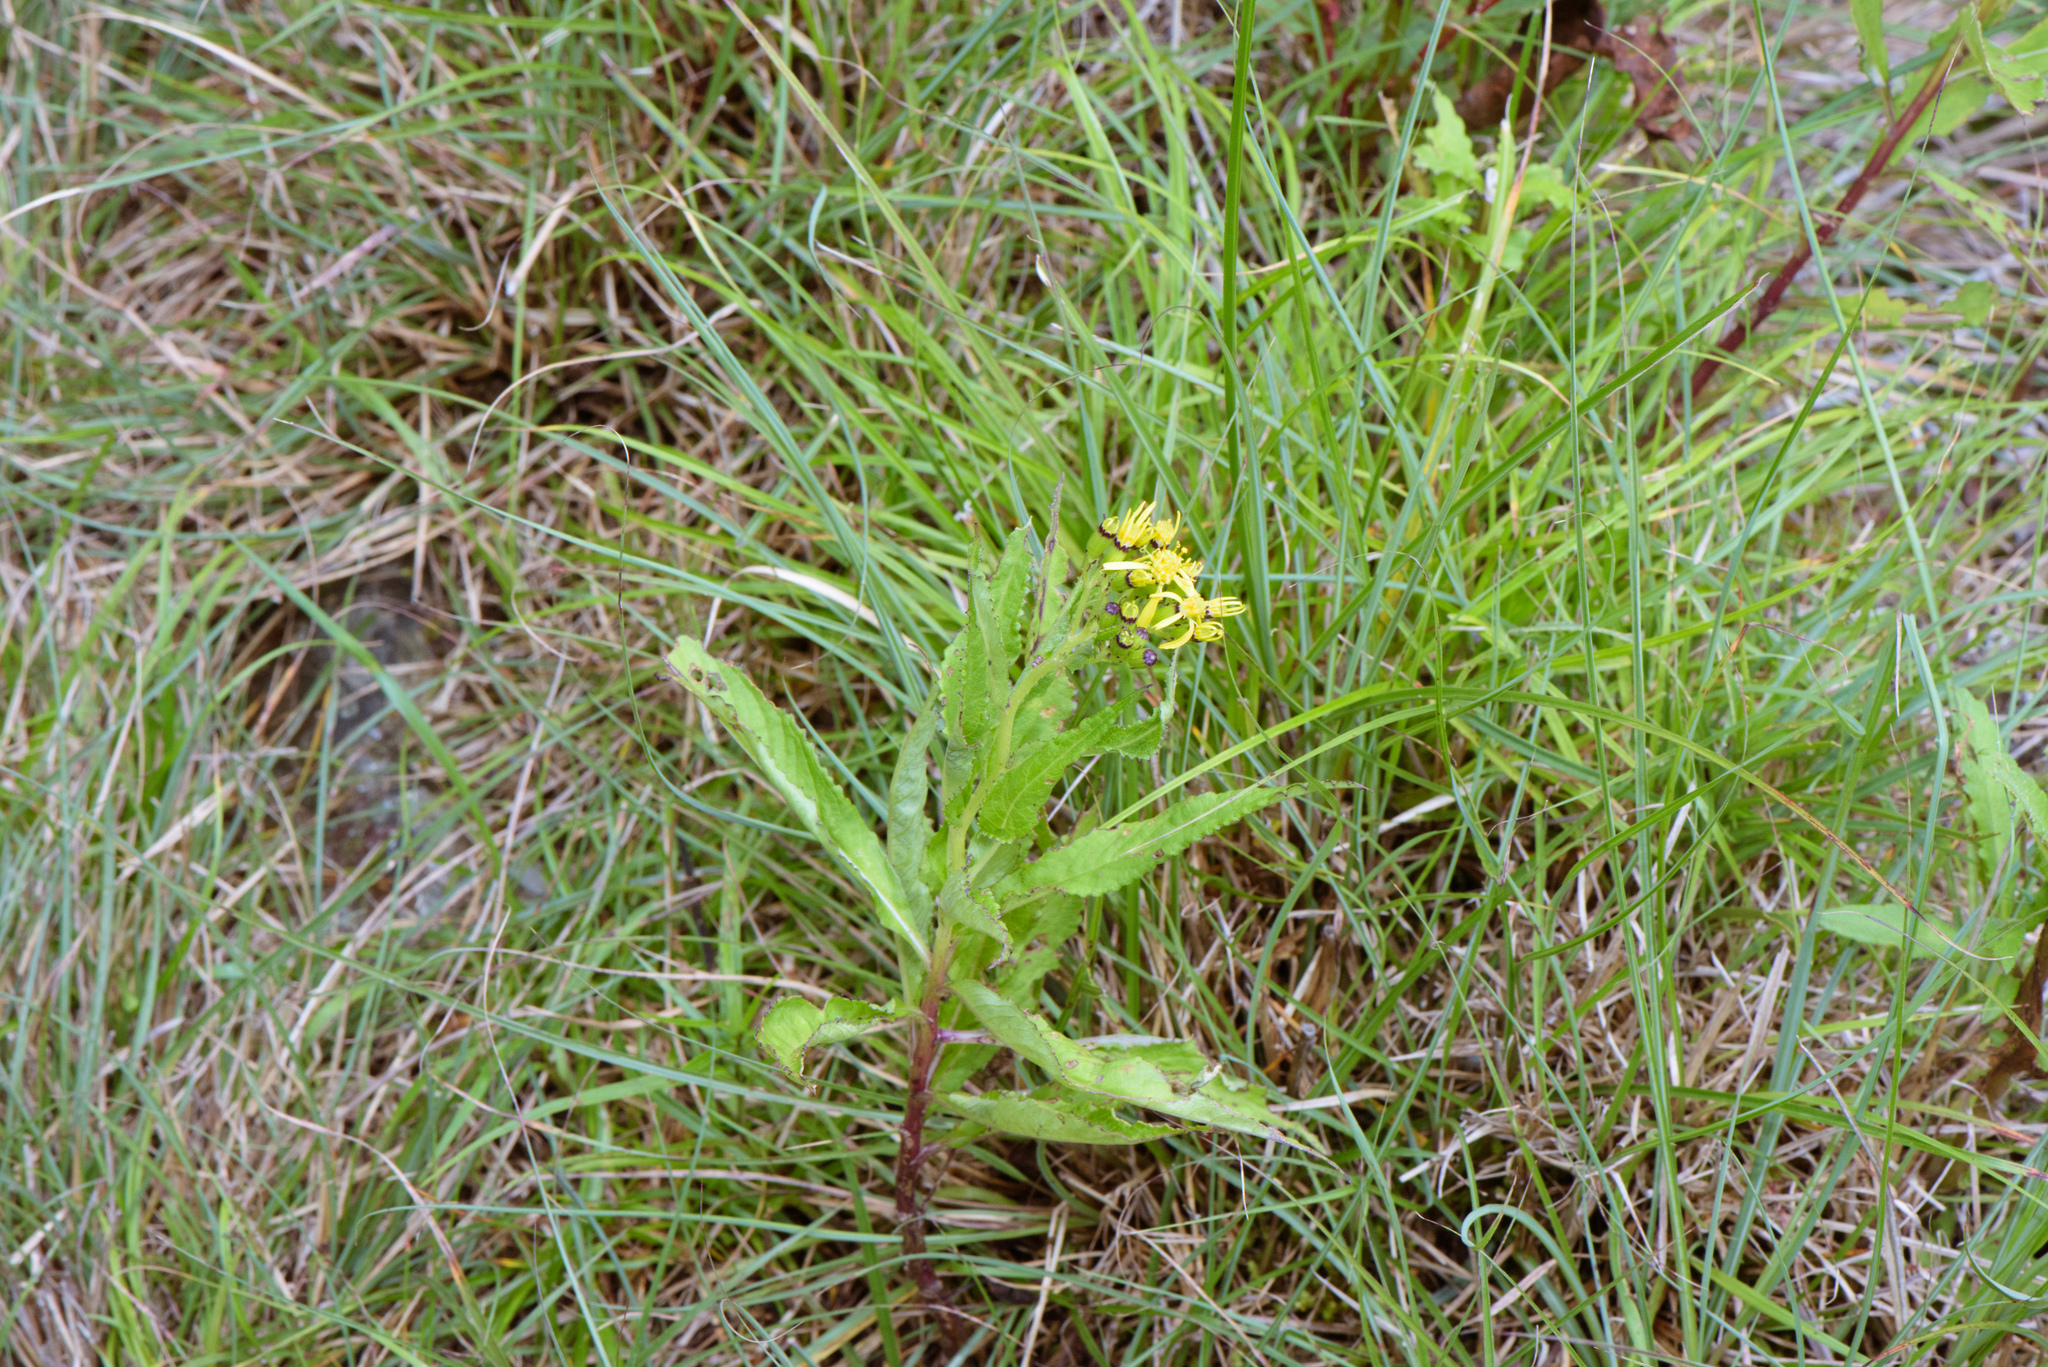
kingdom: Plantae
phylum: Tracheophyta
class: Magnoliopsida
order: Asterales
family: Asteraceae
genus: Jacobaea
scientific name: Jacobaea morrisonensis
